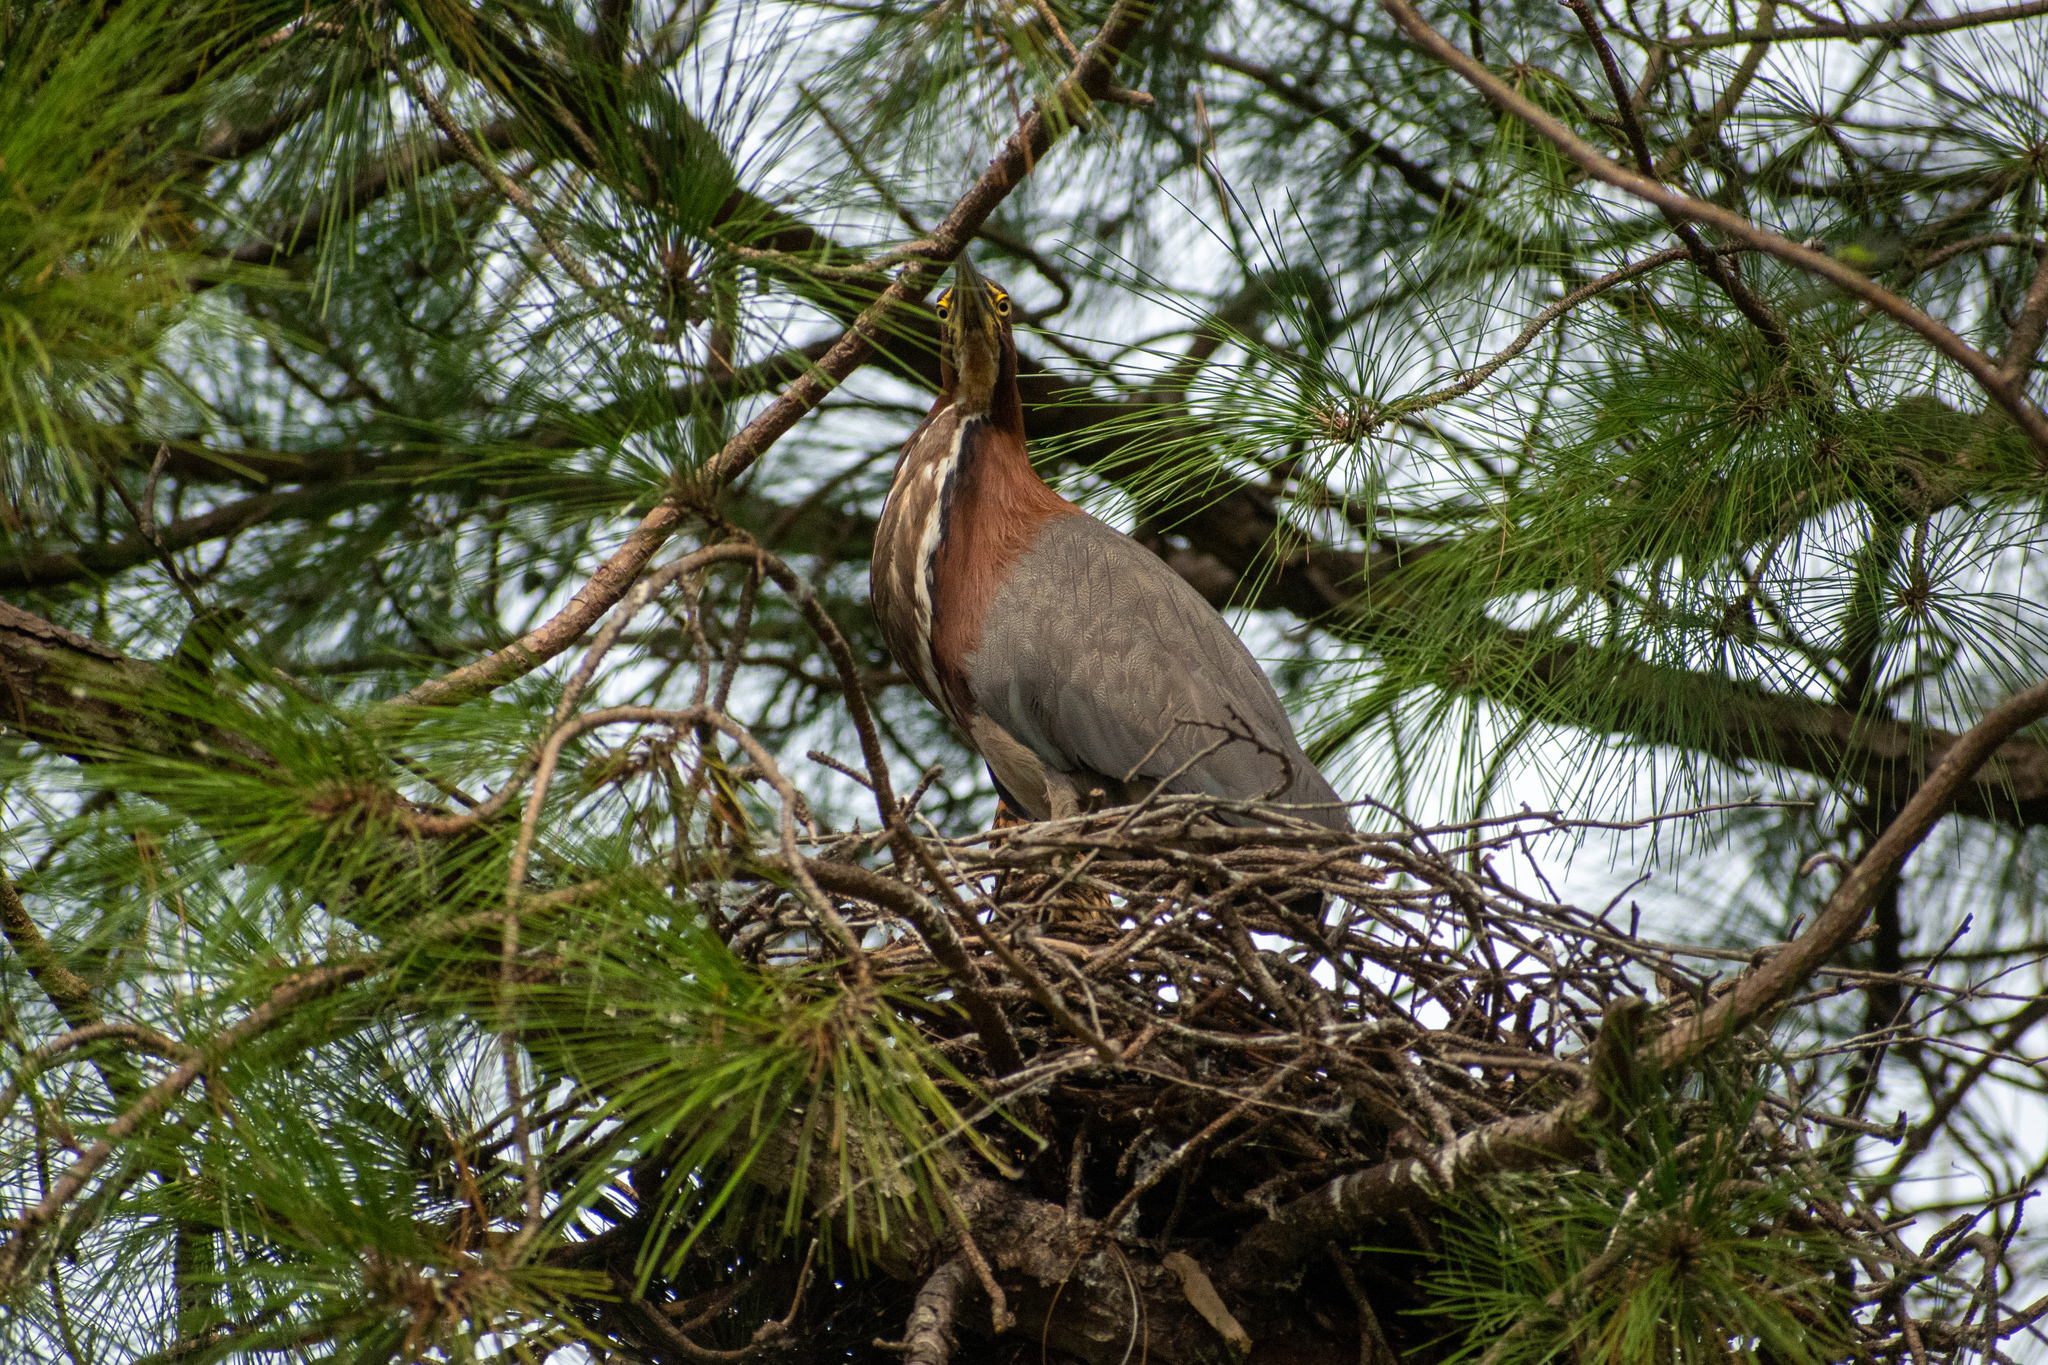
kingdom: Animalia
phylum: Chordata
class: Aves
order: Pelecaniformes
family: Ardeidae
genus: Tigrisoma
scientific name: Tigrisoma lineatum
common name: Rufescent tiger-heron
